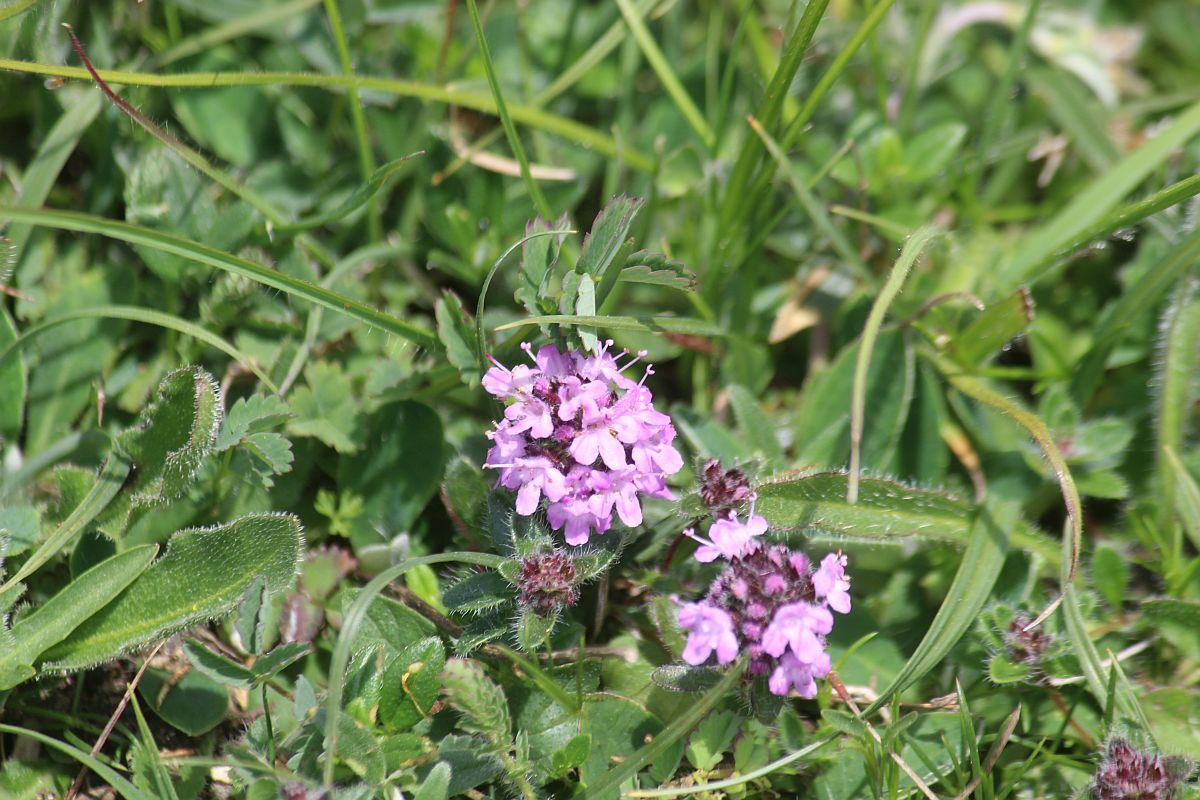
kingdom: Plantae
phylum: Tracheophyta
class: Magnoliopsida
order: Lamiales
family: Lamiaceae
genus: Thymus
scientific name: Thymus praecox
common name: Wild thyme
